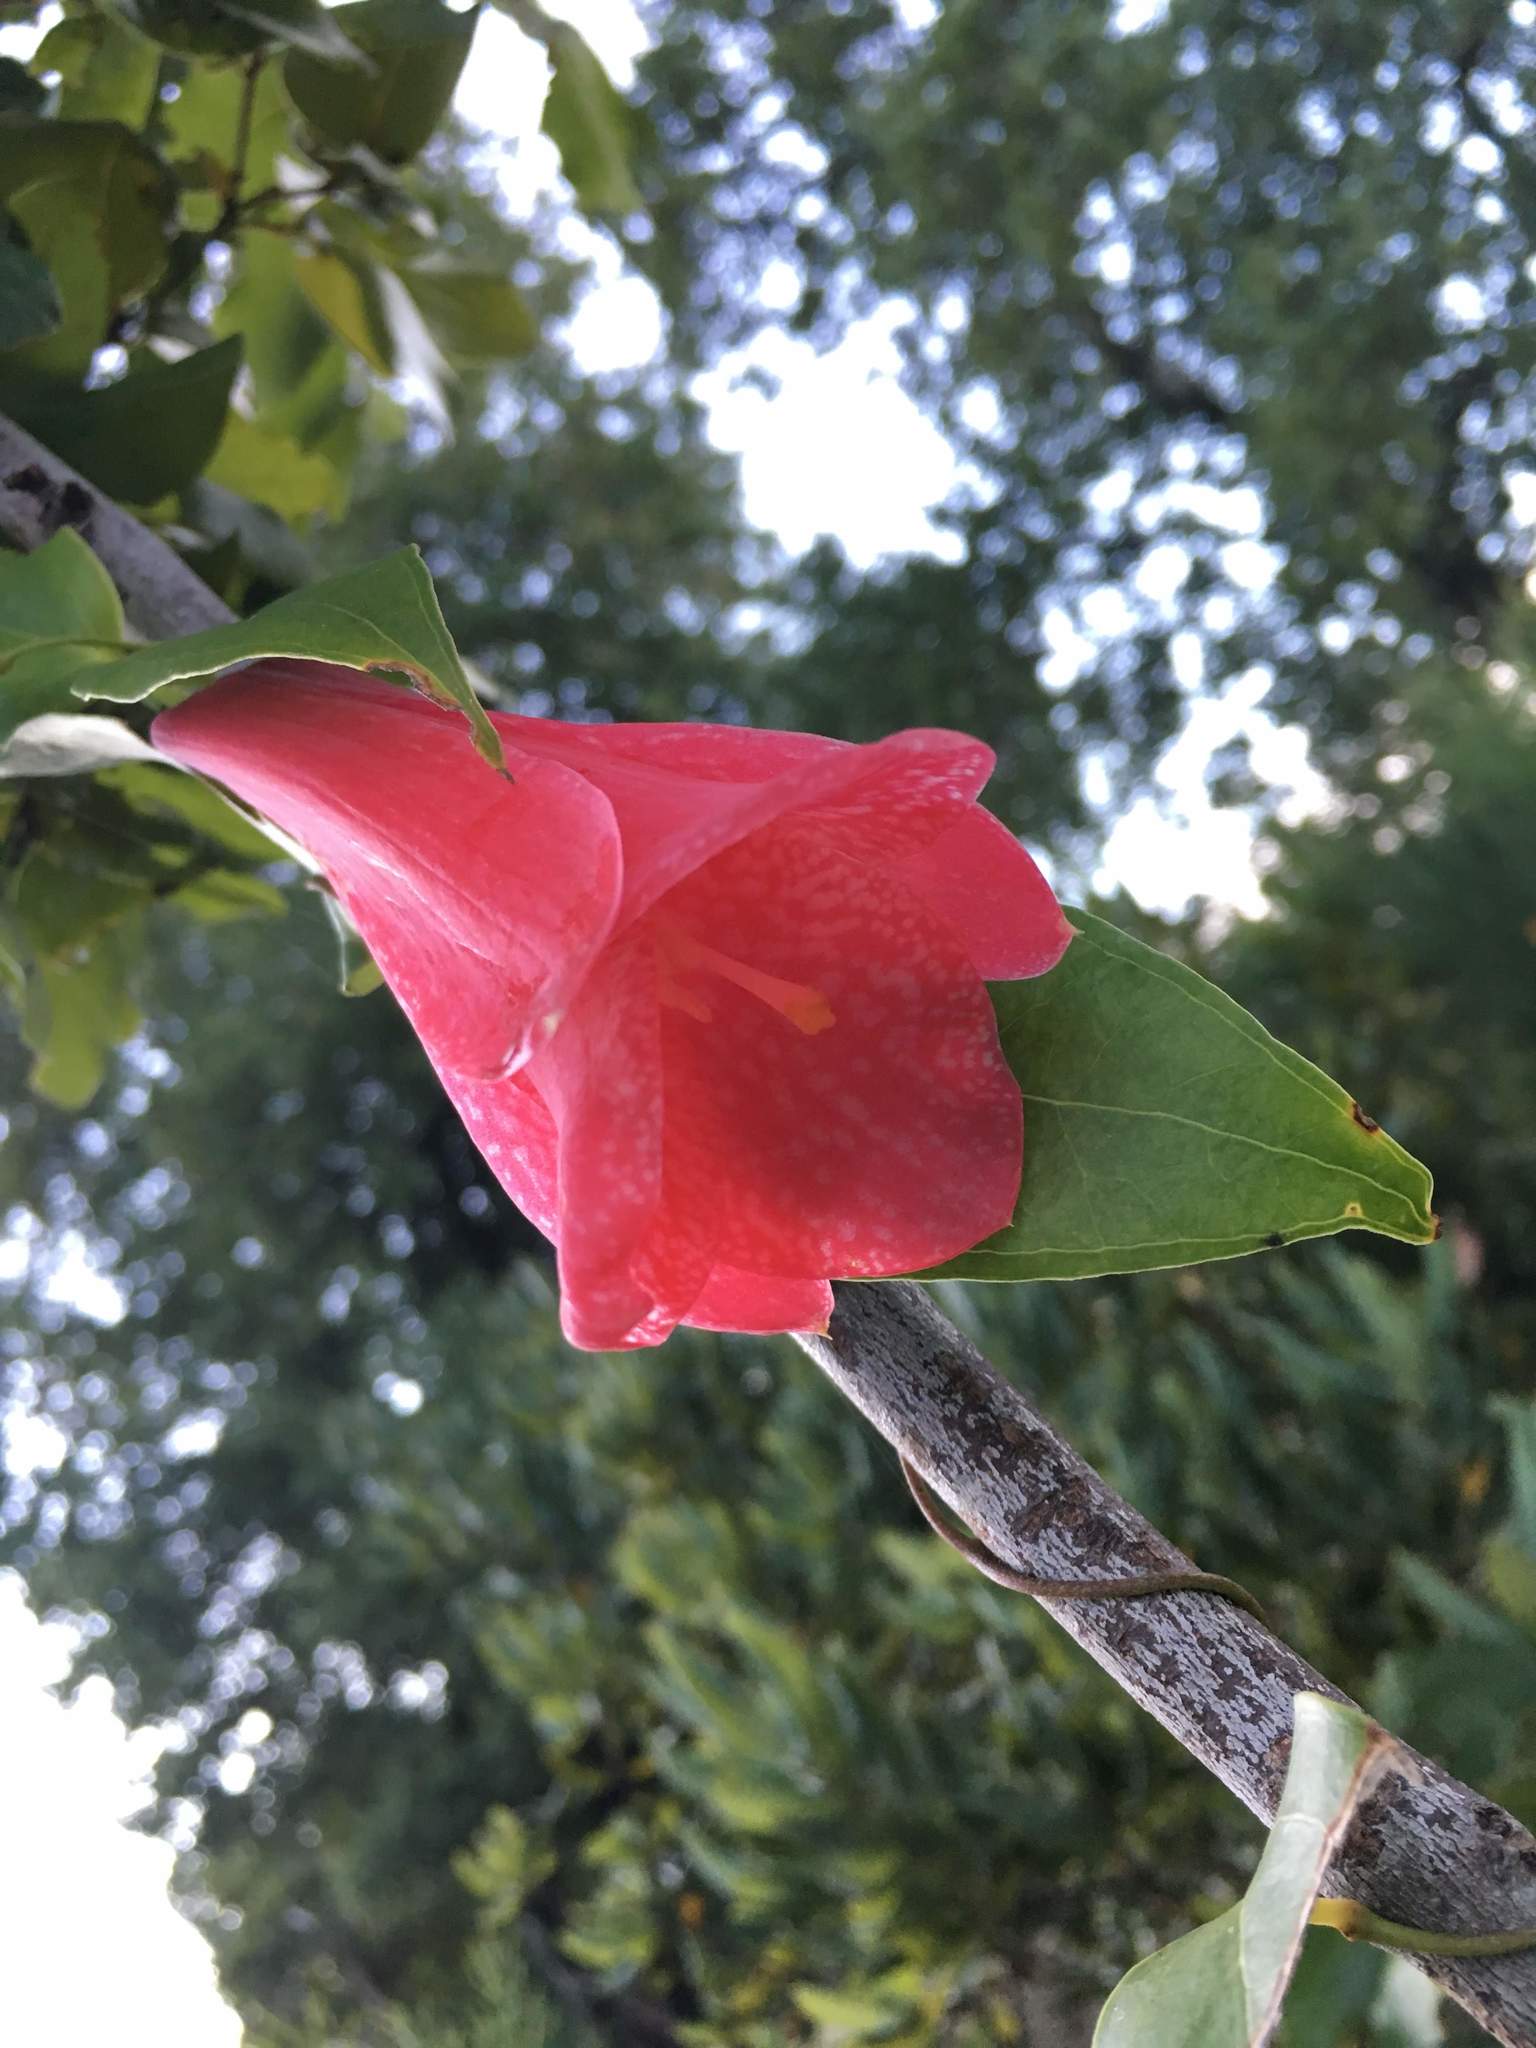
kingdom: Plantae
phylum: Tracheophyta
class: Liliopsida
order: Liliales
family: Philesiaceae
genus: Lapageria
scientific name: Lapageria rosea
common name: Chilean-bellflower
